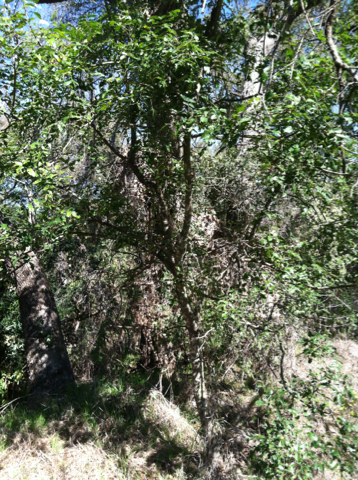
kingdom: Plantae
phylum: Tracheophyta
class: Magnoliopsida
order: Sapindales
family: Rutaceae
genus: Zanthoxylum
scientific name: Zanthoxylum clava-herculis
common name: Hercules'-club
